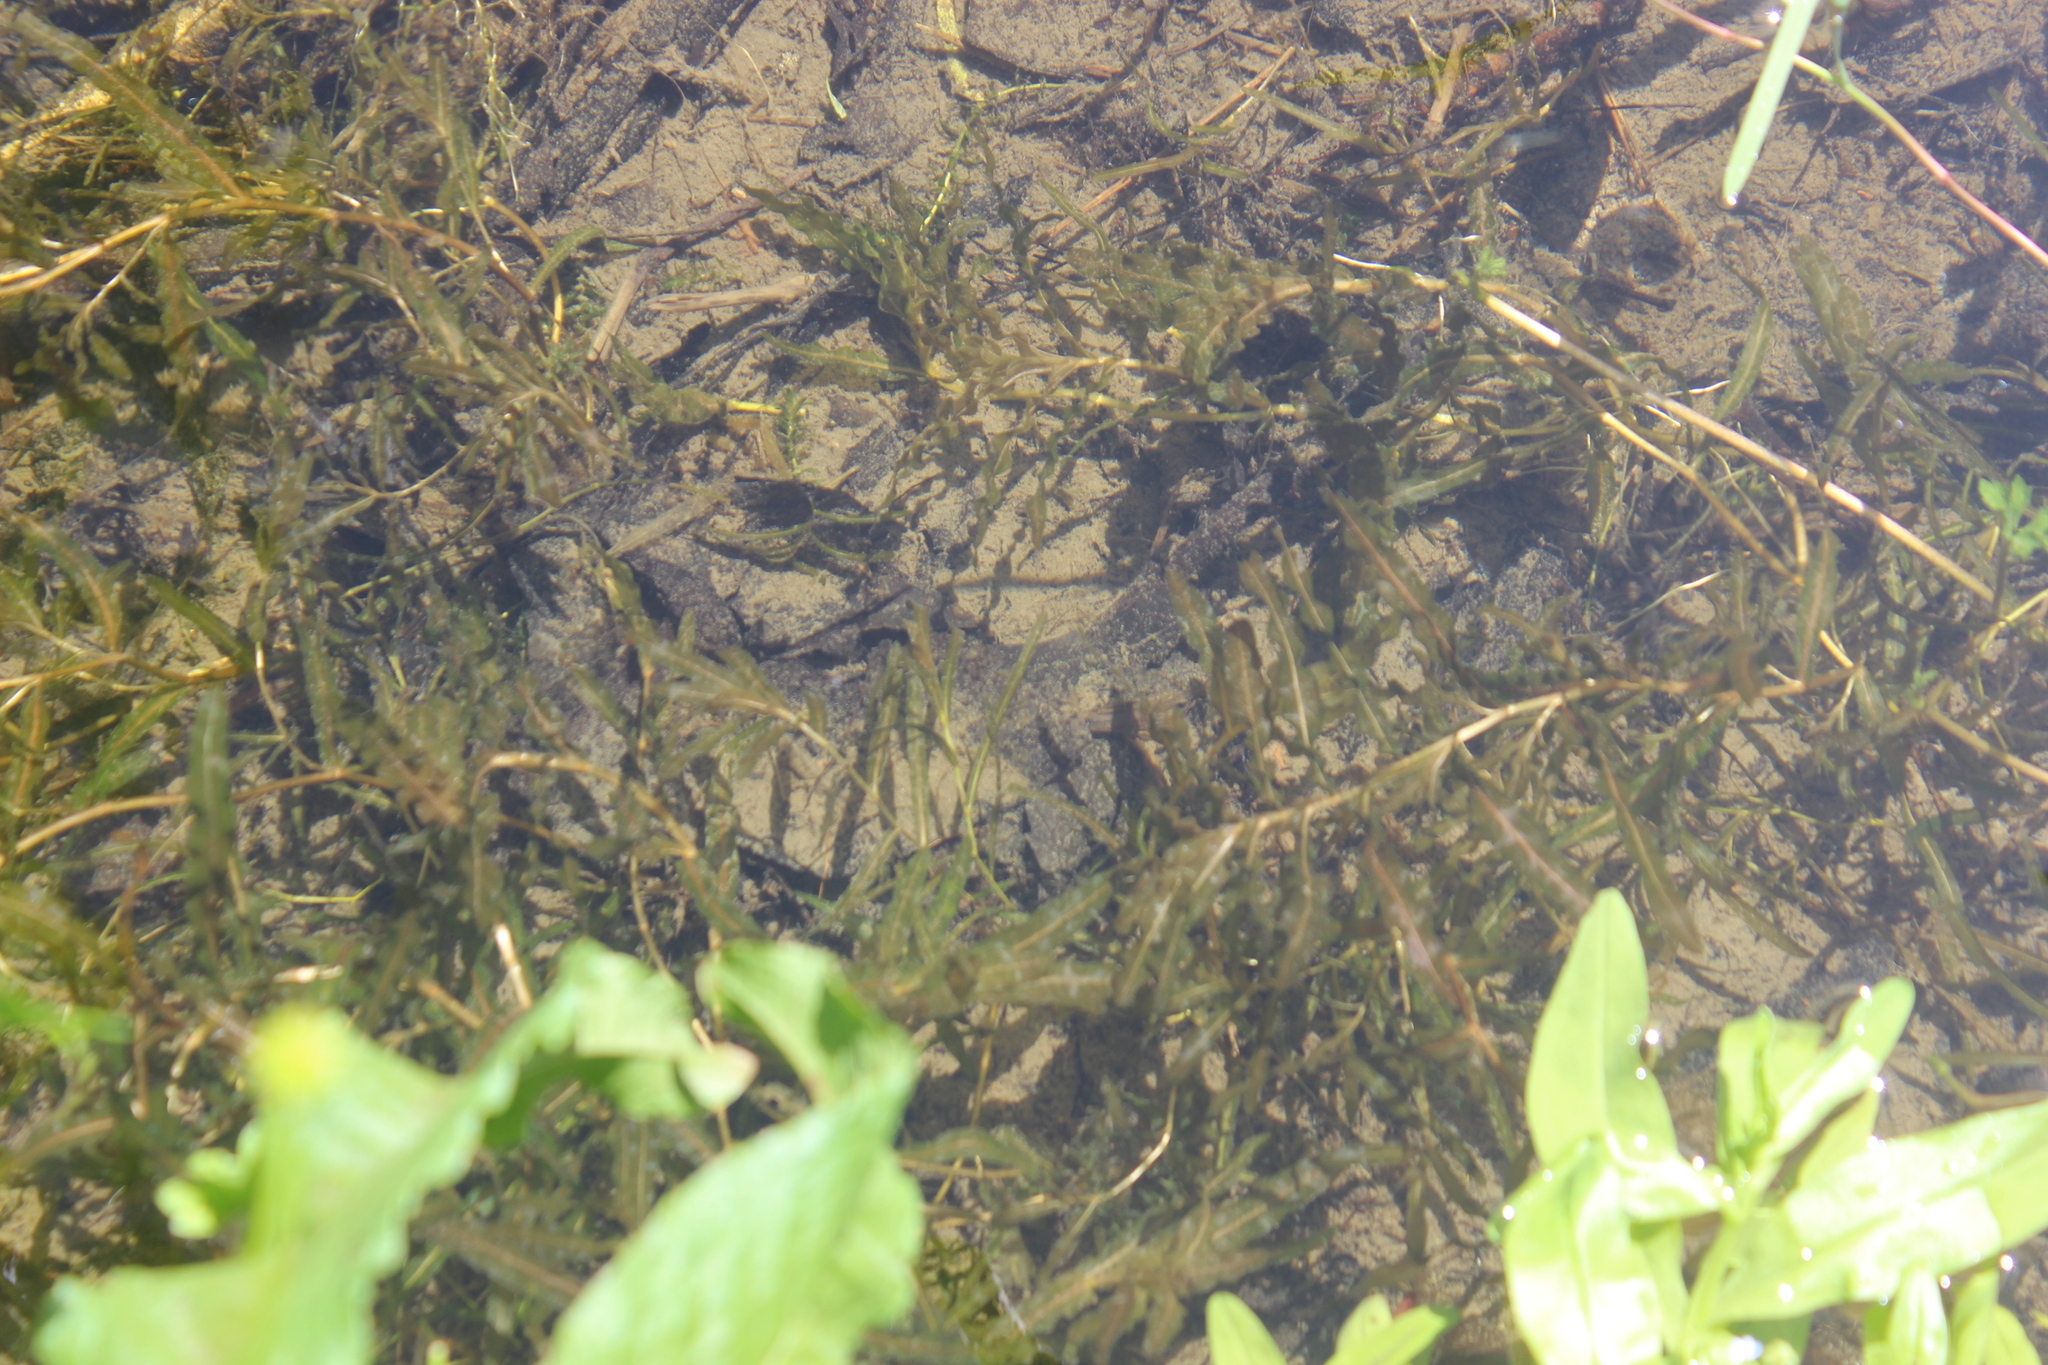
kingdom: Plantae
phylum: Tracheophyta
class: Liliopsida
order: Alismatales
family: Potamogetonaceae
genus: Potamogeton
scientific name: Potamogeton crispus
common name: Curled pondweed
